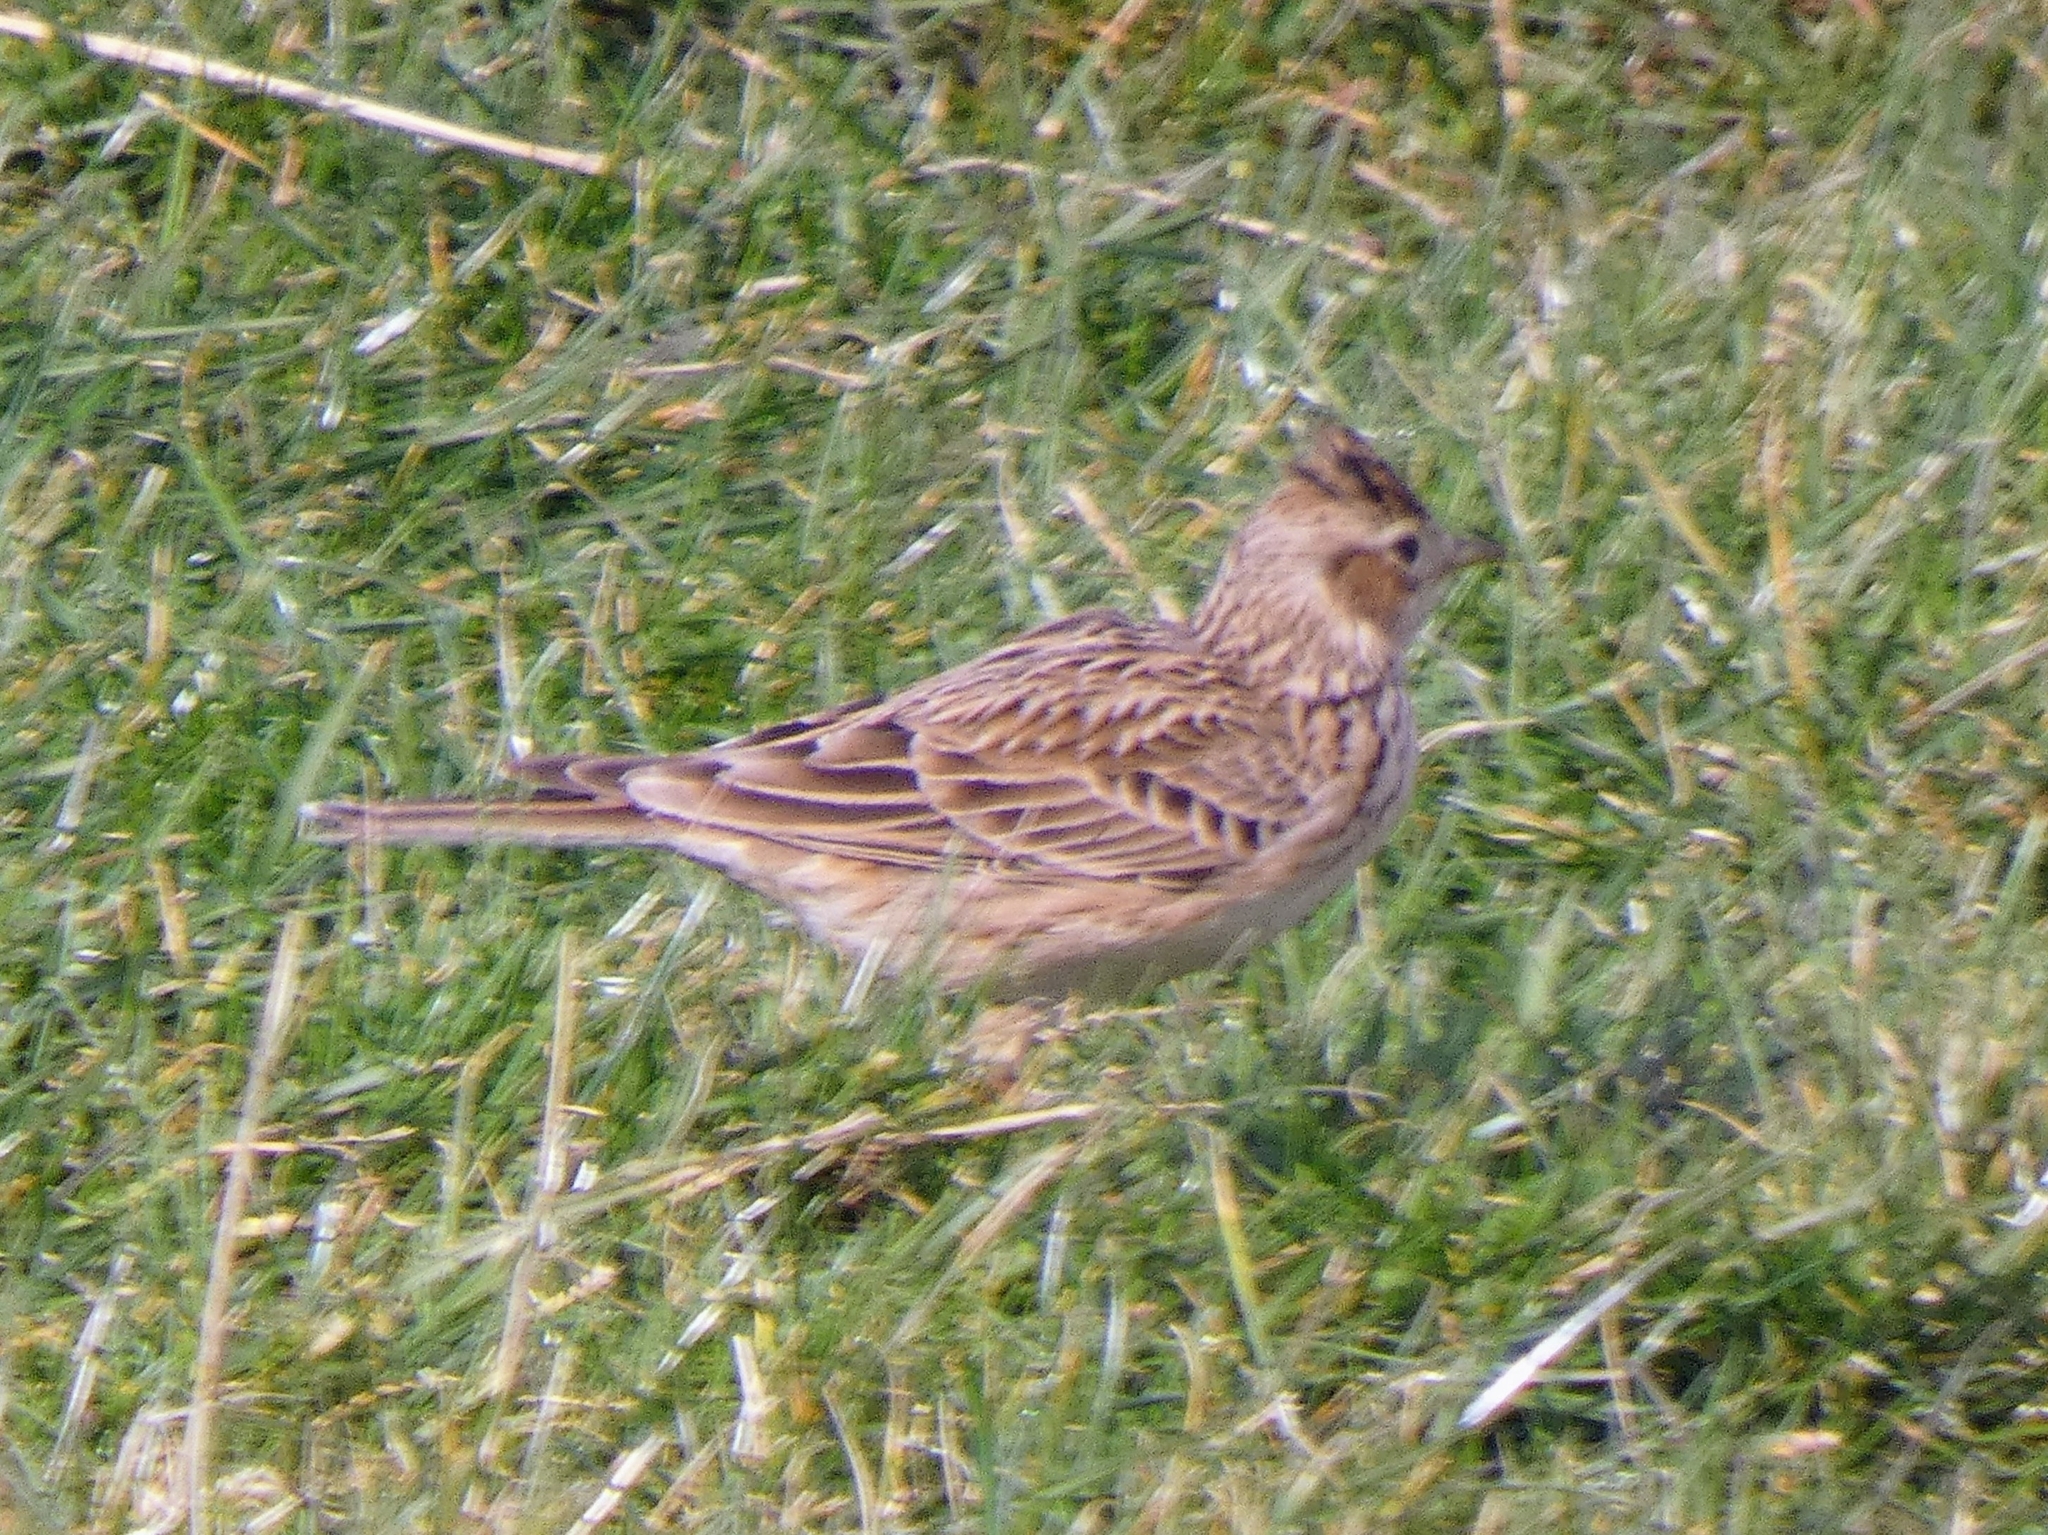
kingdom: Animalia
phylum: Chordata
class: Aves
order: Passeriformes
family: Alaudidae
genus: Alauda
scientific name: Alauda arvensis
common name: Eurasian skylark
